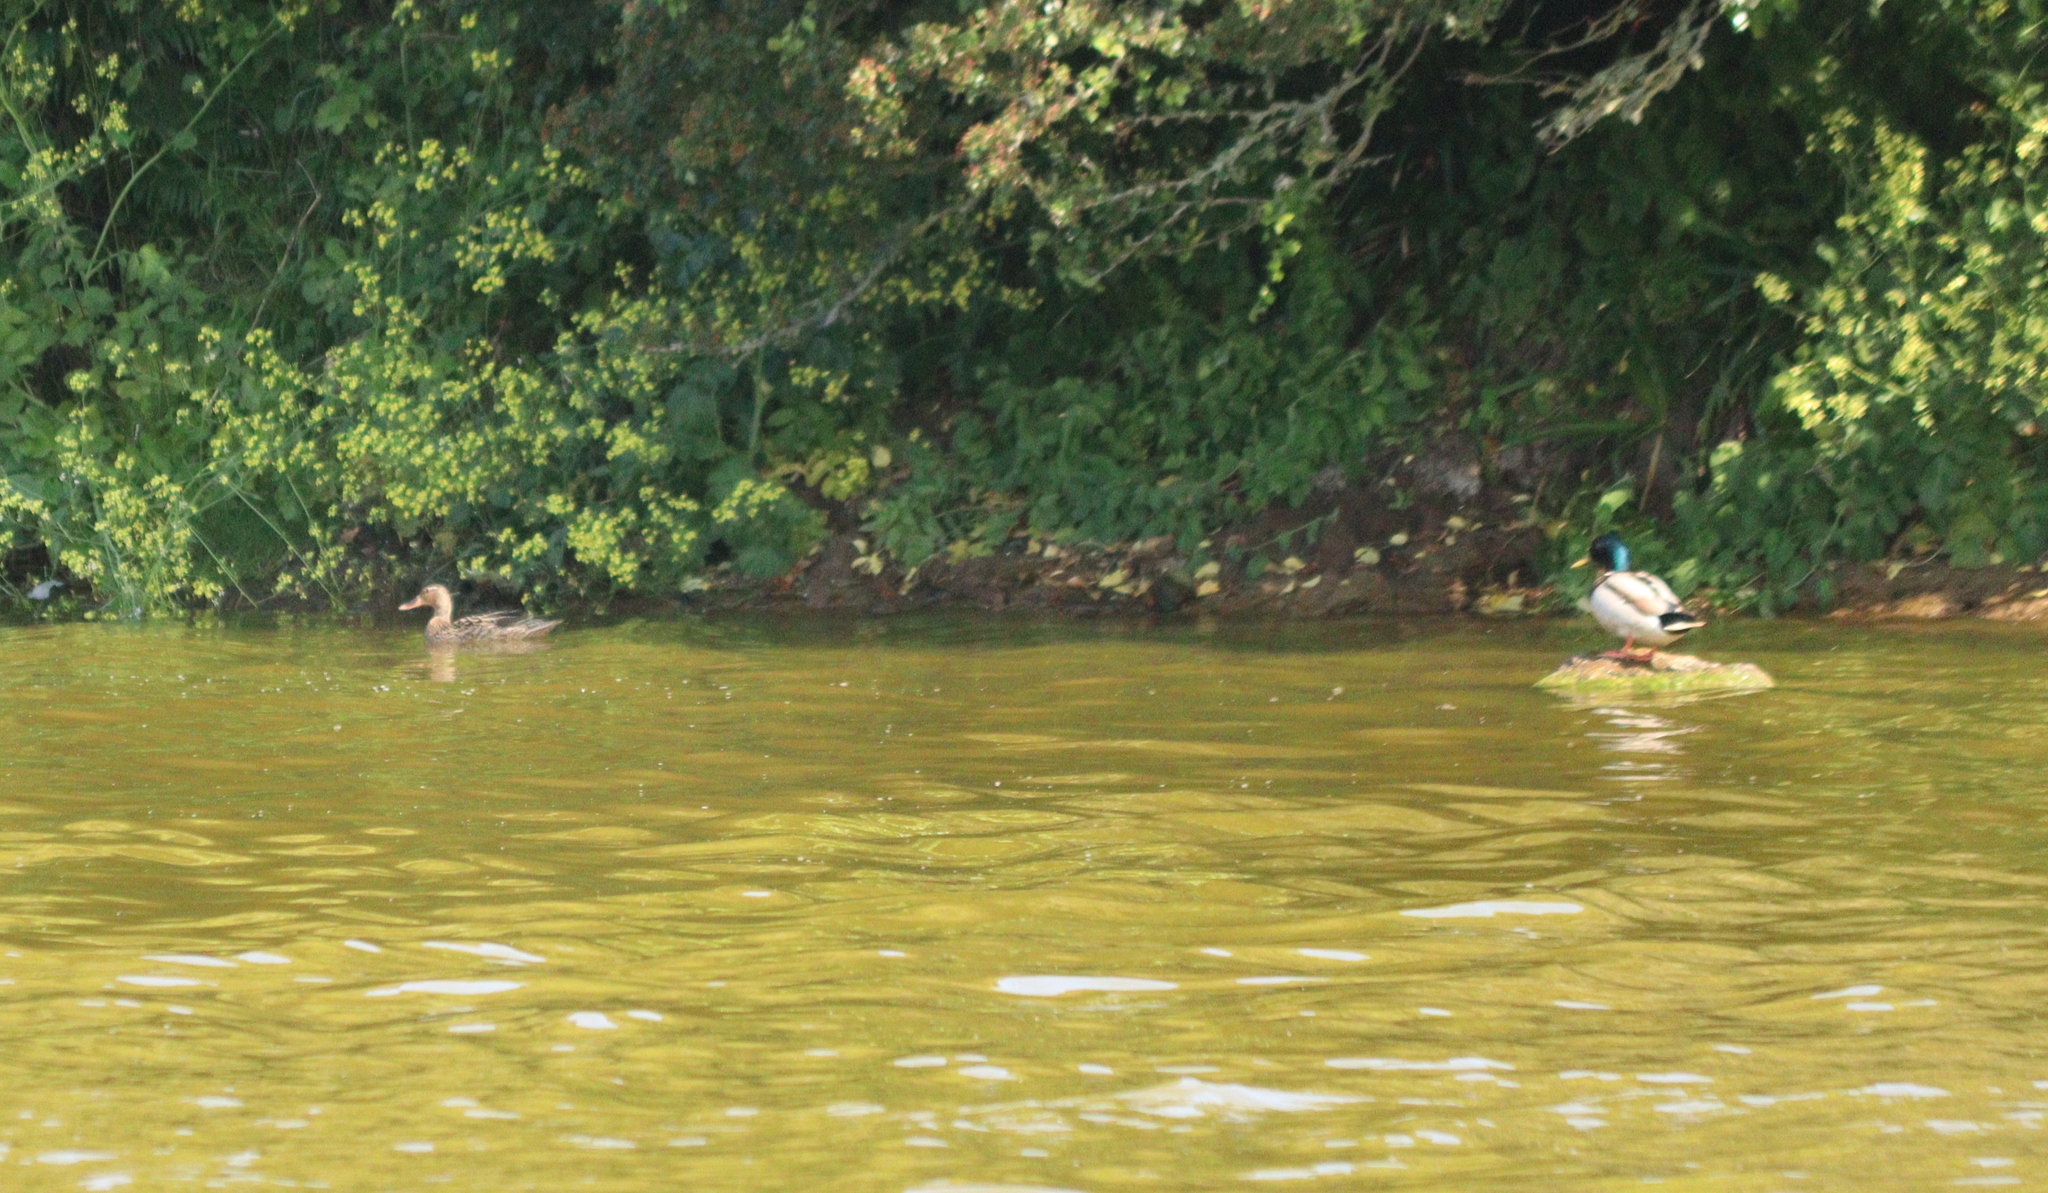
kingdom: Animalia
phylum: Chordata
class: Aves
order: Anseriformes
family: Anatidae
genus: Anas
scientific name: Anas platyrhynchos
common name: Mallard
